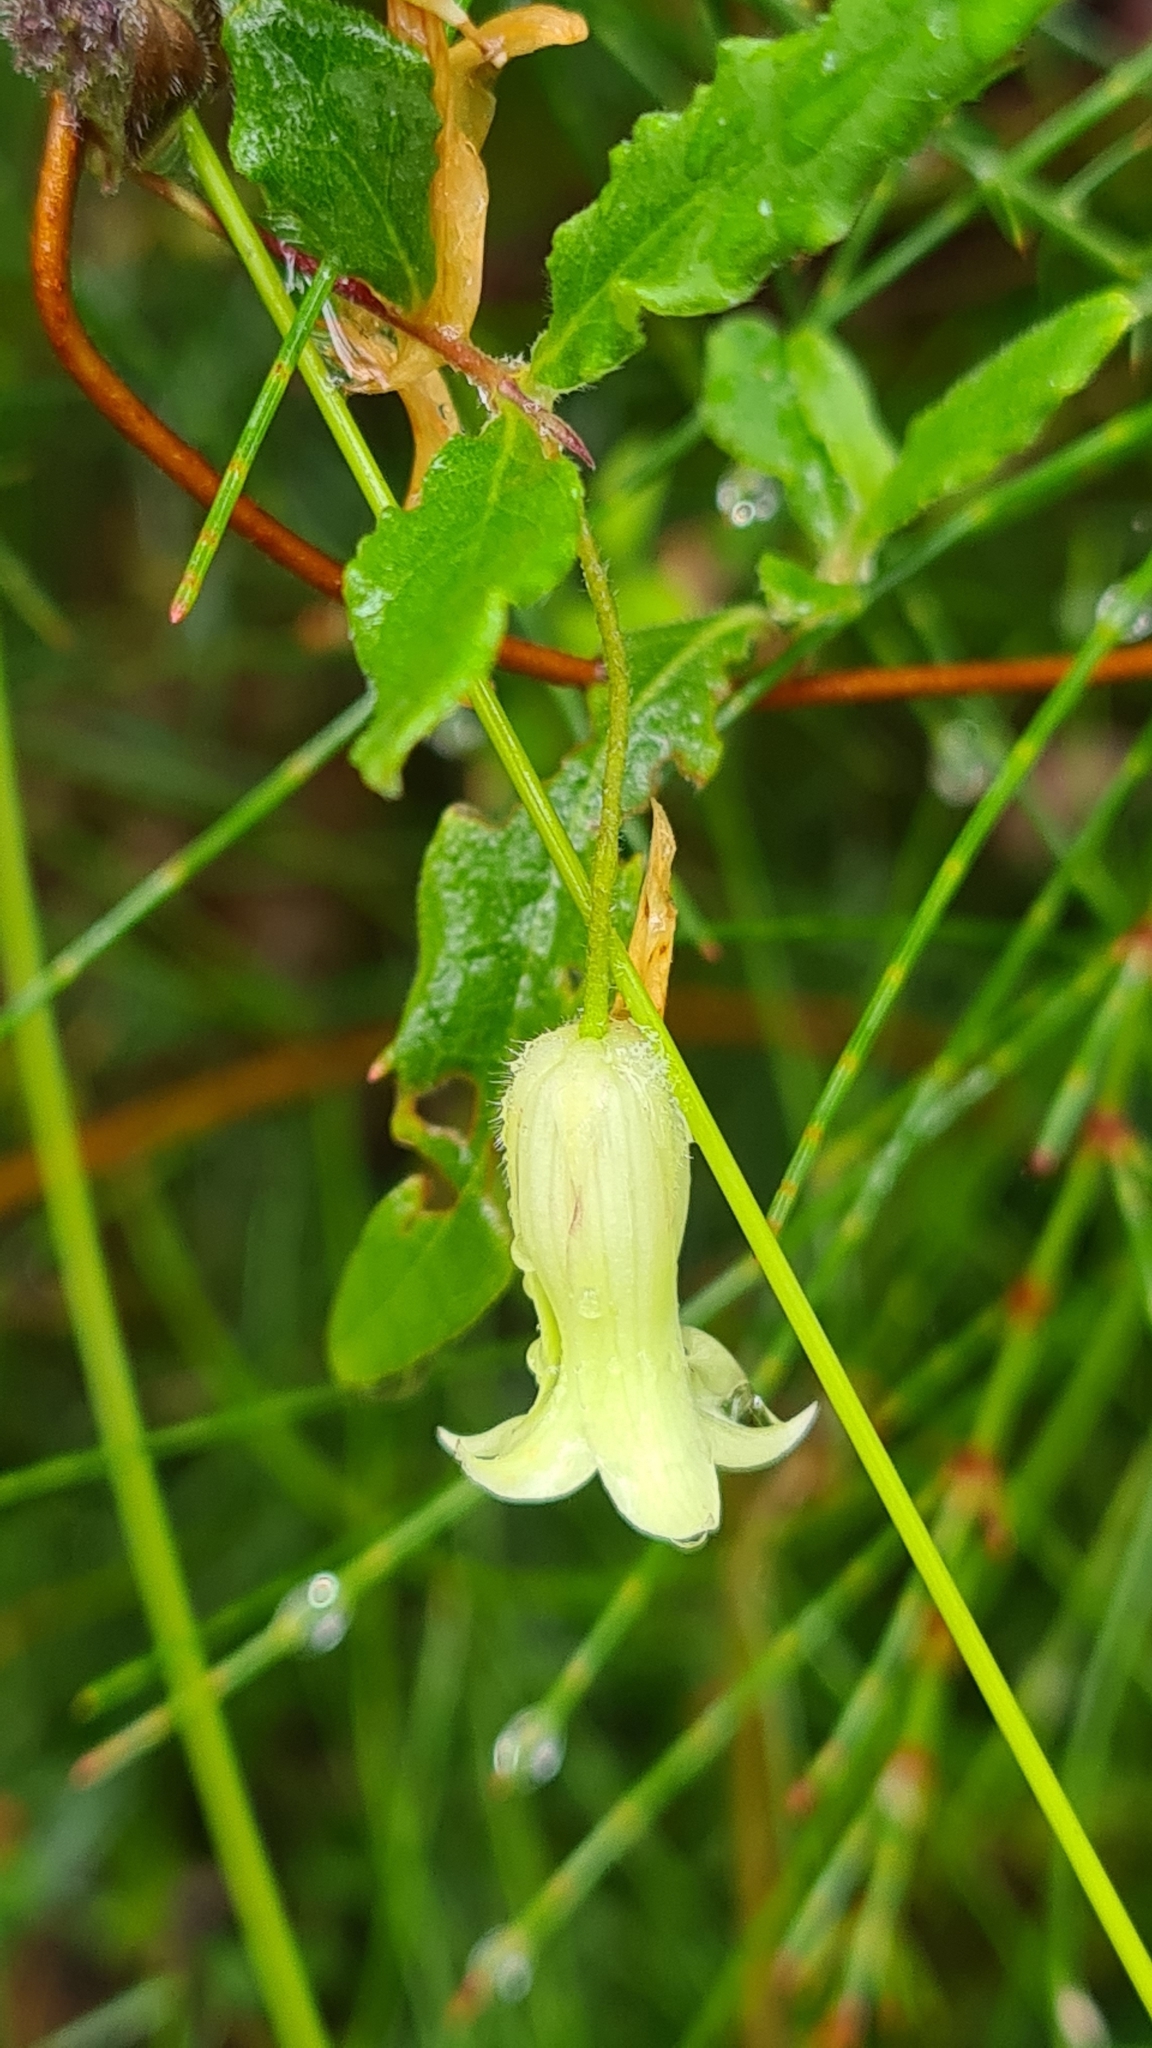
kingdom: Plantae
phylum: Tracheophyta
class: Magnoliopsida
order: Apiales
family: Pittosporaceae
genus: Billardiera
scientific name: Billardiera scandens
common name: Apple-berry
